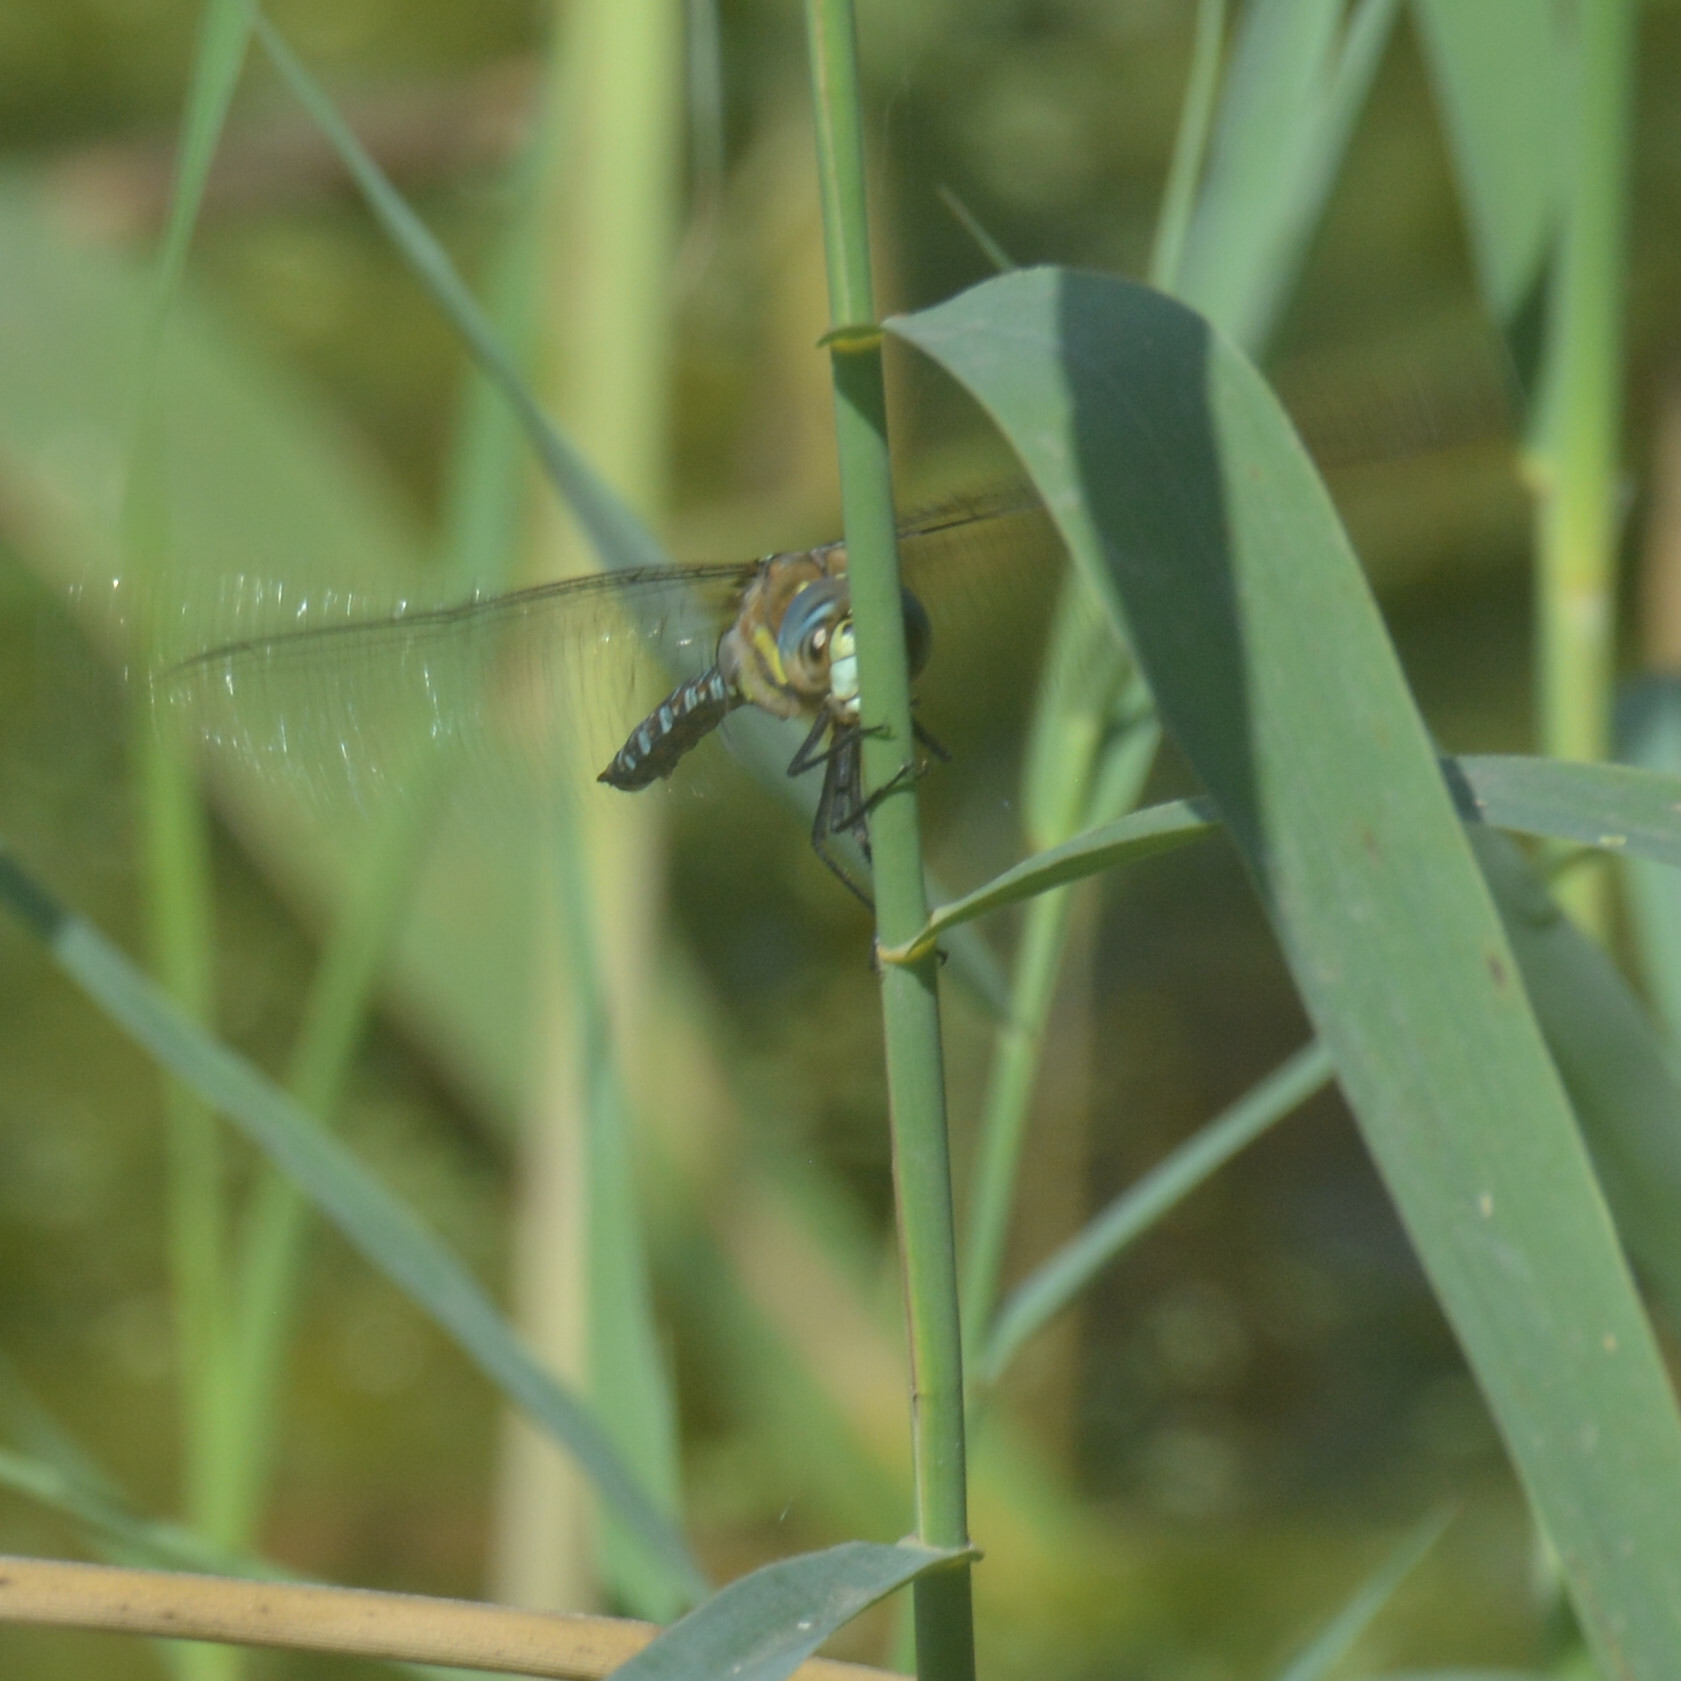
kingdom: Animalia
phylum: Arthropoda
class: Insecta
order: Odonata
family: Aeshnidae
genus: Aeshna
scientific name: Aeshna mixta
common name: Migrant hawker
